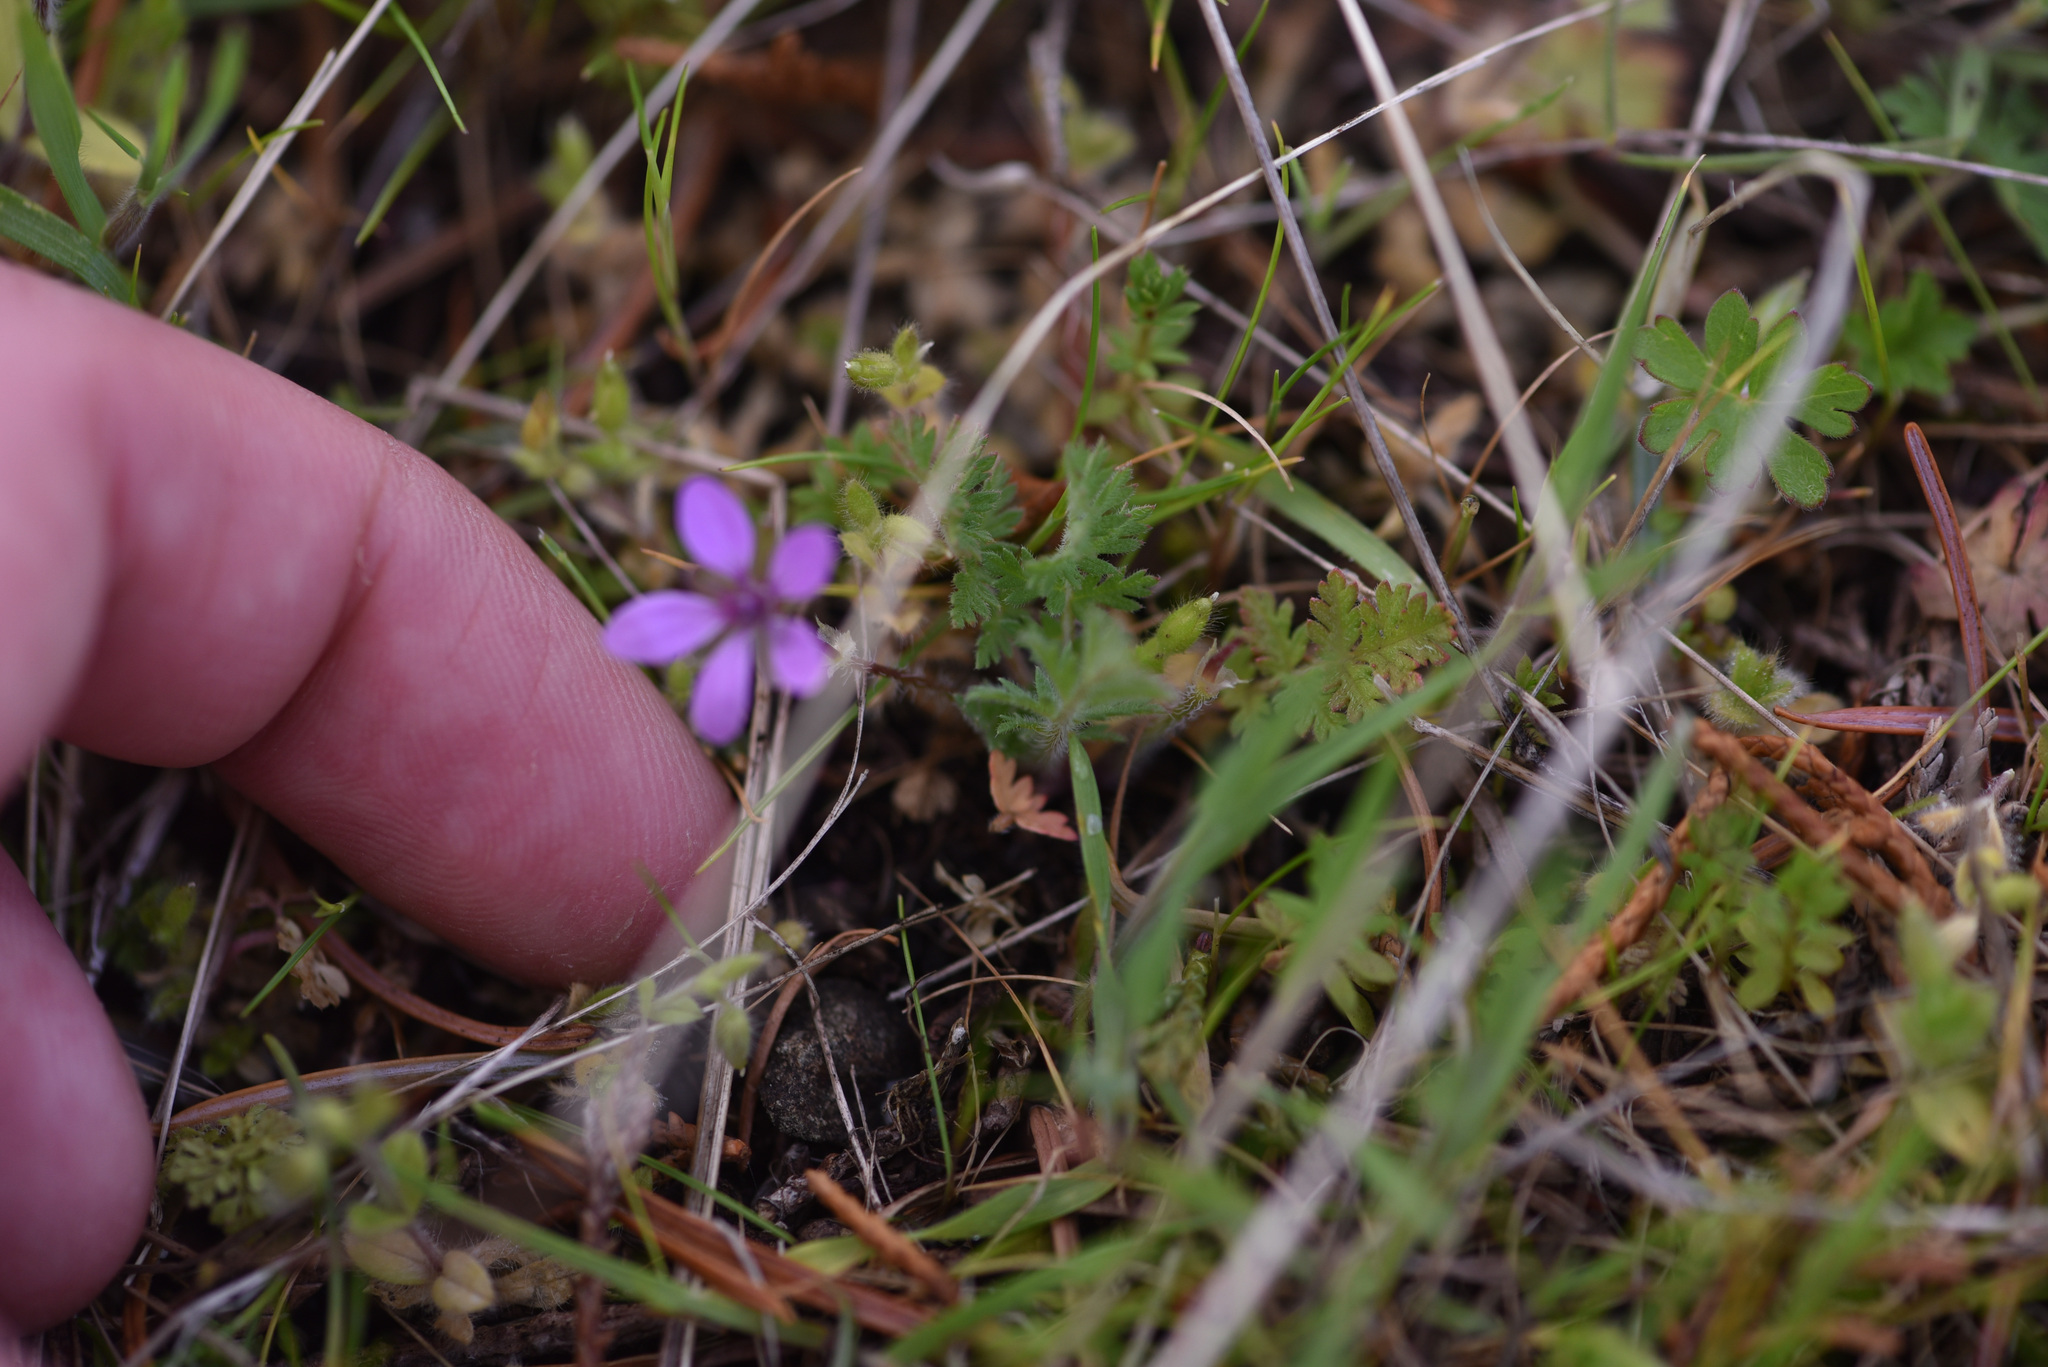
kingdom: Plantae
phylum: Tracheophyta
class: Magnoliopsida
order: Geraniales
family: Geraniaceae
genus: Erodium
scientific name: Erodium cicutarium
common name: Common stork's-bill
